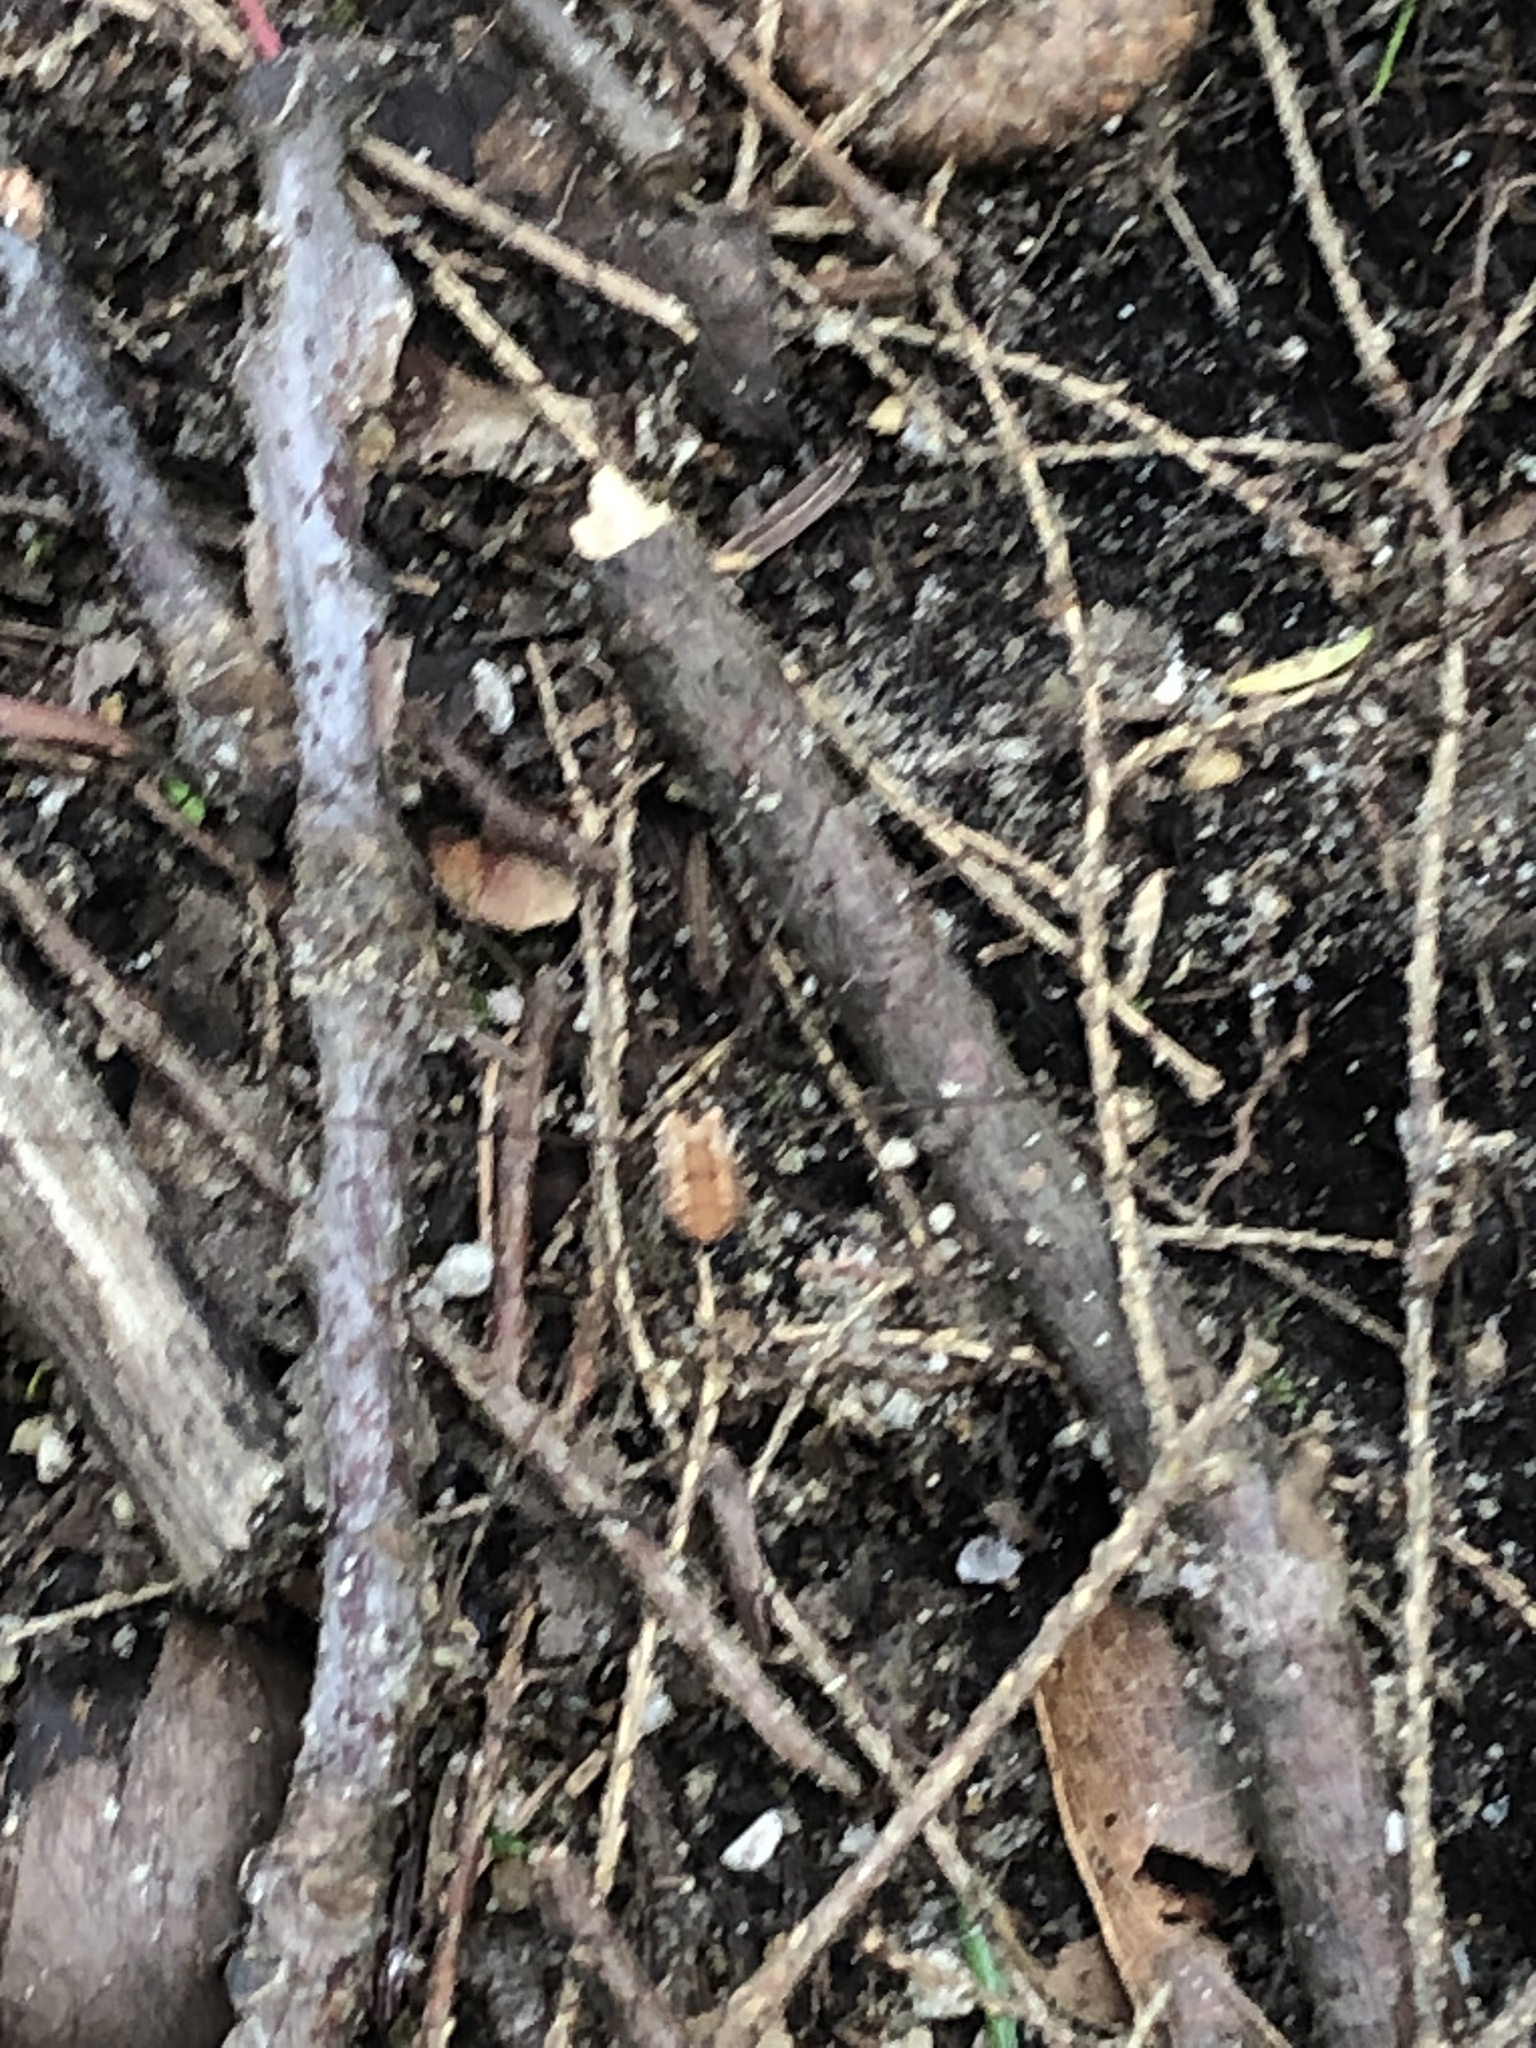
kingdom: Animalia
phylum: Arthropoda
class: Arachnida
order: Opiliones
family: Sclerosomatidae
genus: Leiobunum
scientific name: Leiobunum nigropalpi
